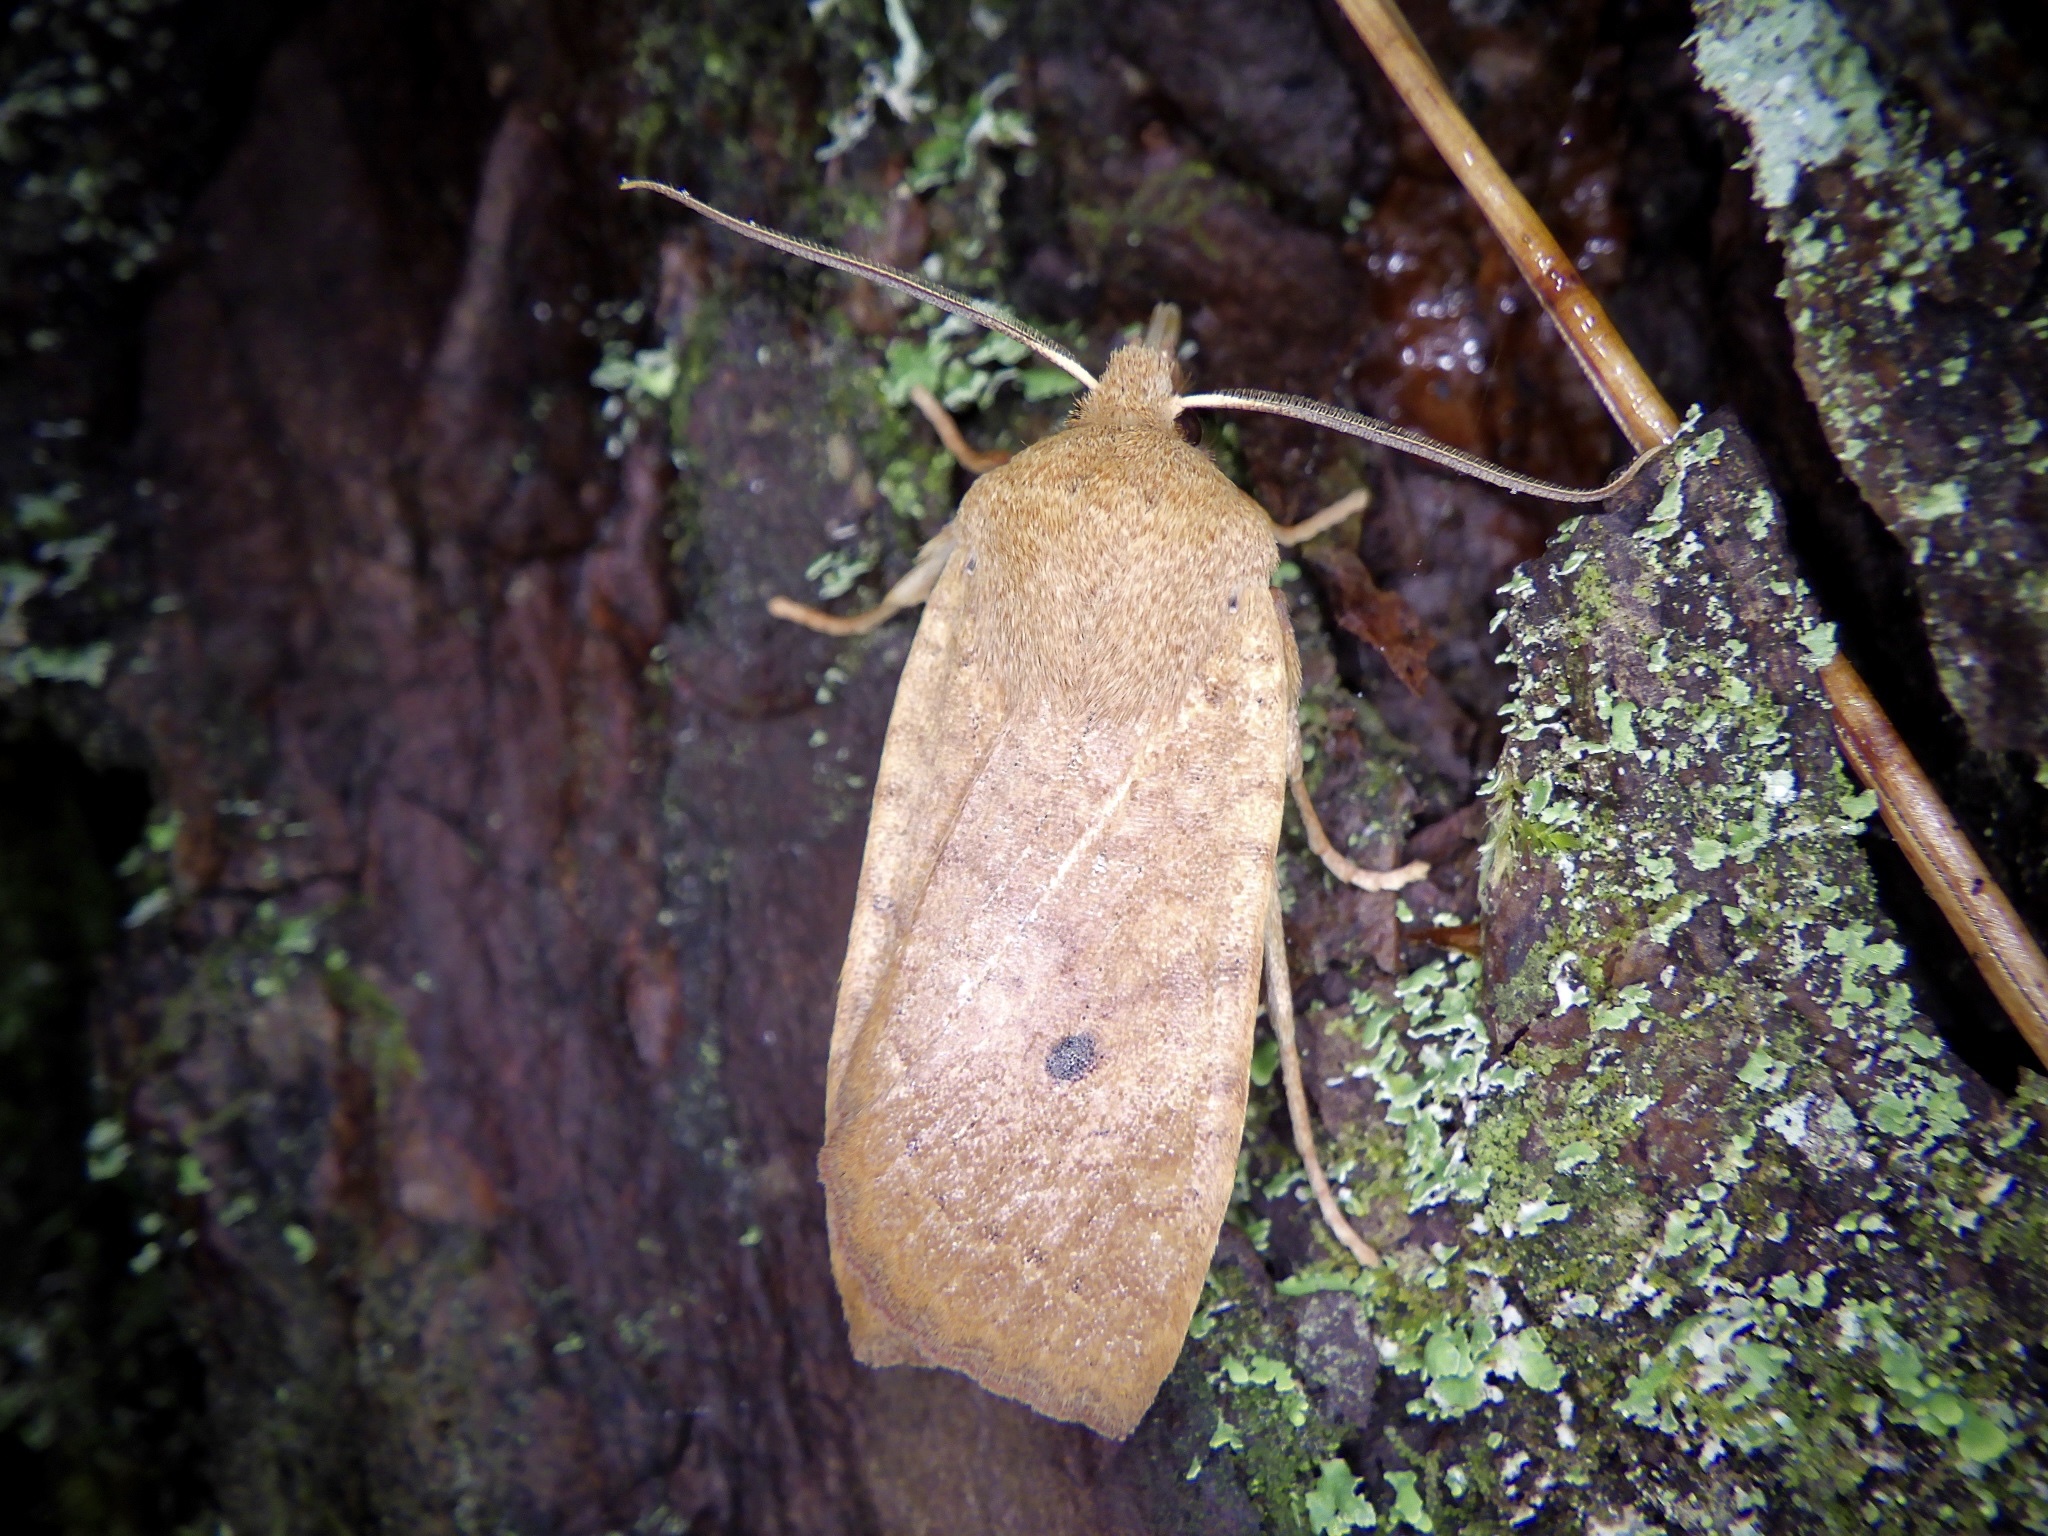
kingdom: Animalia
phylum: Arthropoda
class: Insecta
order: Lepidoptera
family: Noctuidae
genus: Conistra
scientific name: Conistra albipuncta
